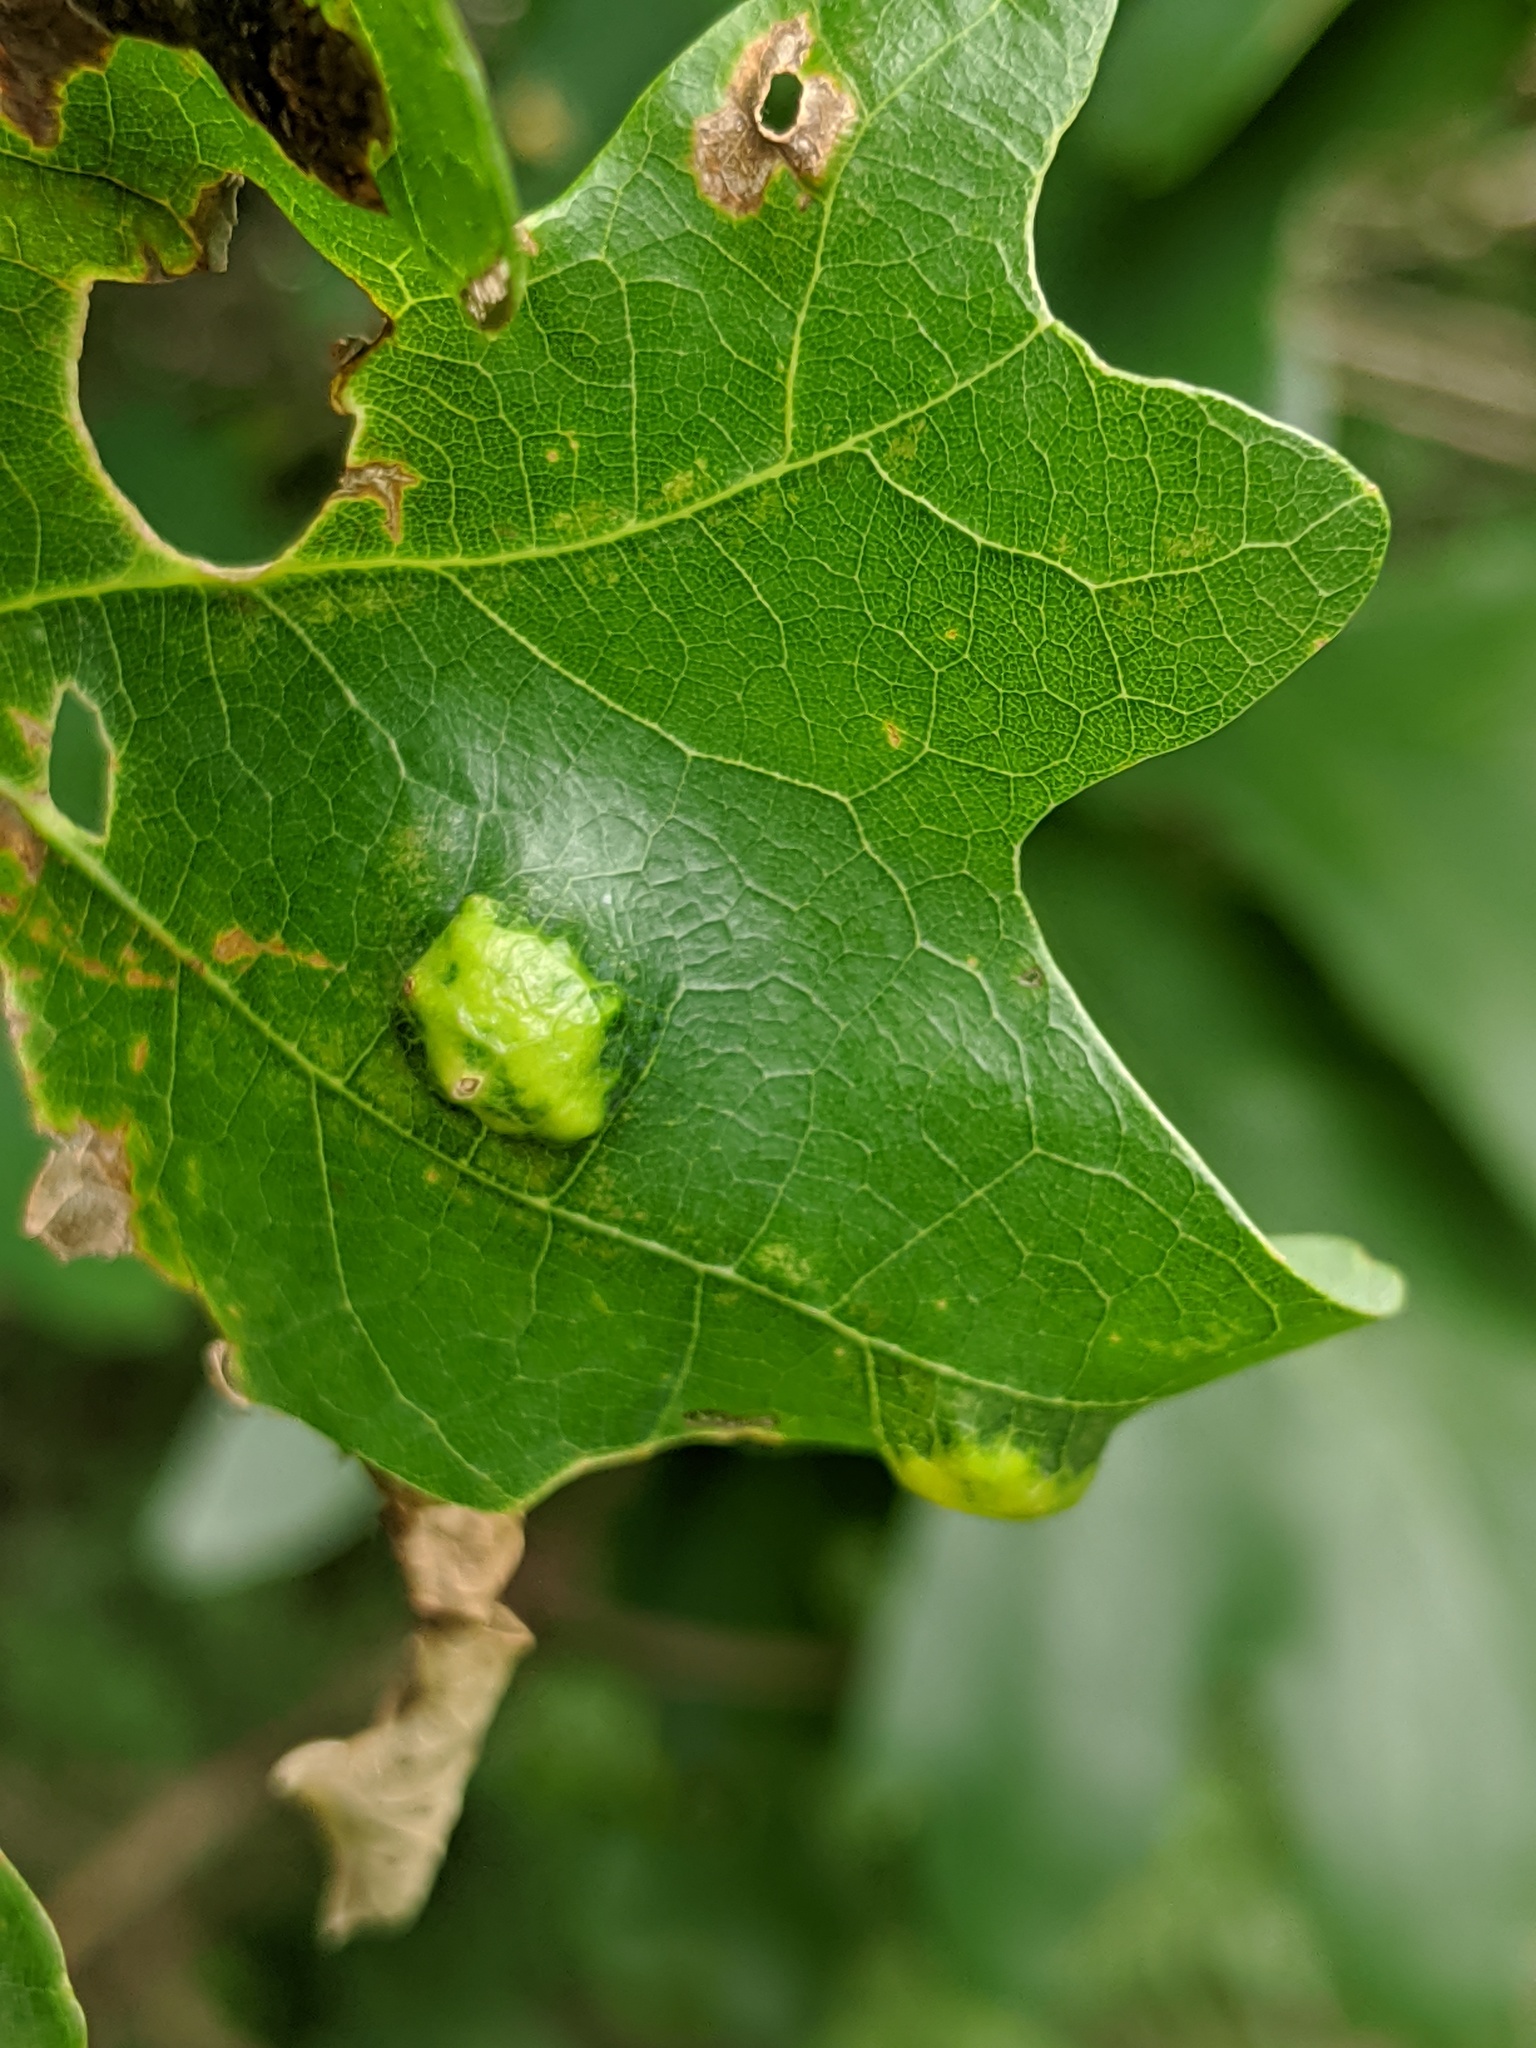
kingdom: Animalia
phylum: Arthropoda
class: Arachnida
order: Trombidiformes
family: Eriophyidae
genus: Aceria
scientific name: Aceria
